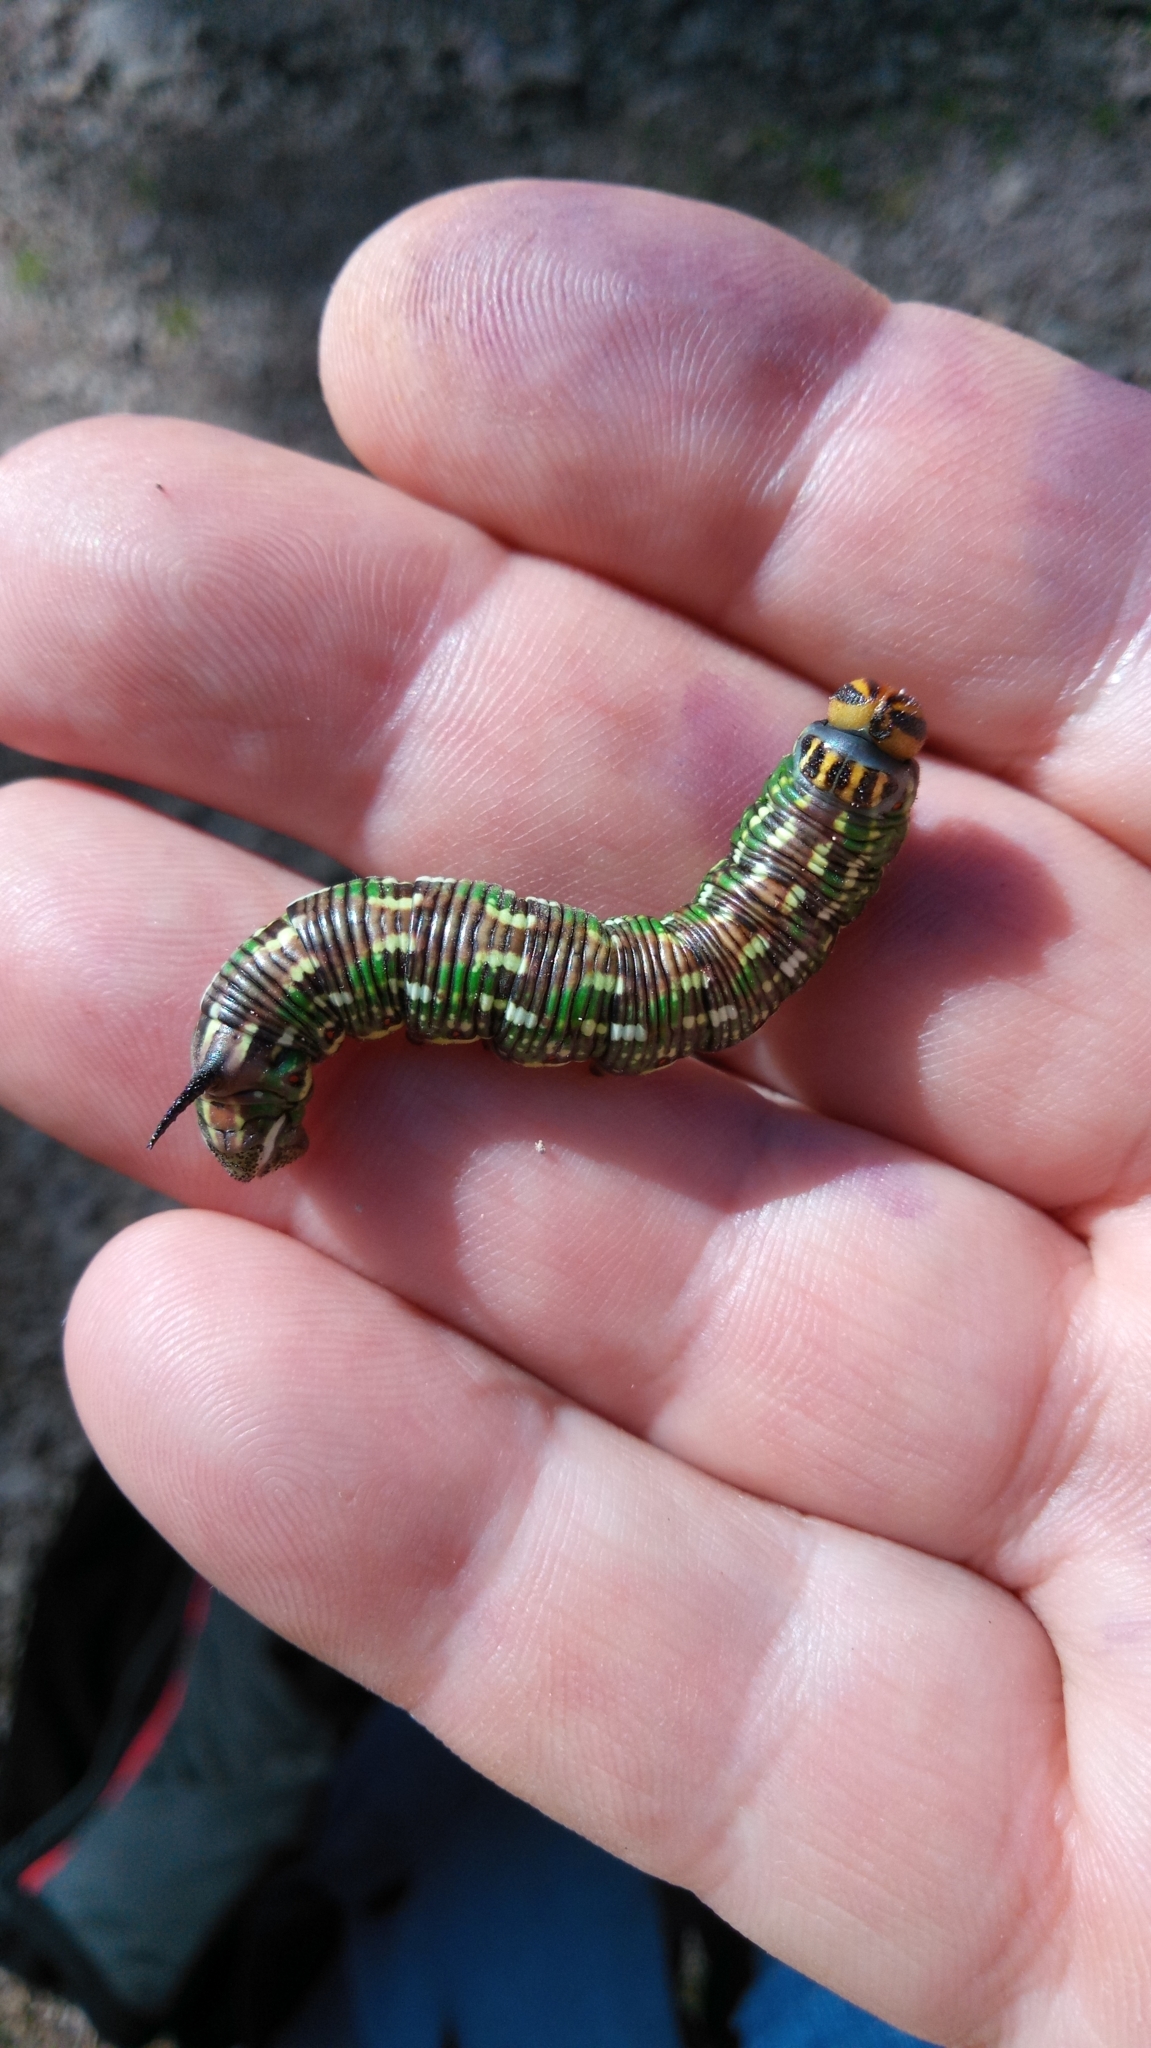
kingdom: Animalia
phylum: Arthropoda
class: Insecta
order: Lepidoptera
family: Sphingidae
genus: Sphinx
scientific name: Sphinx pinastri
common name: Pine hawk-moth
